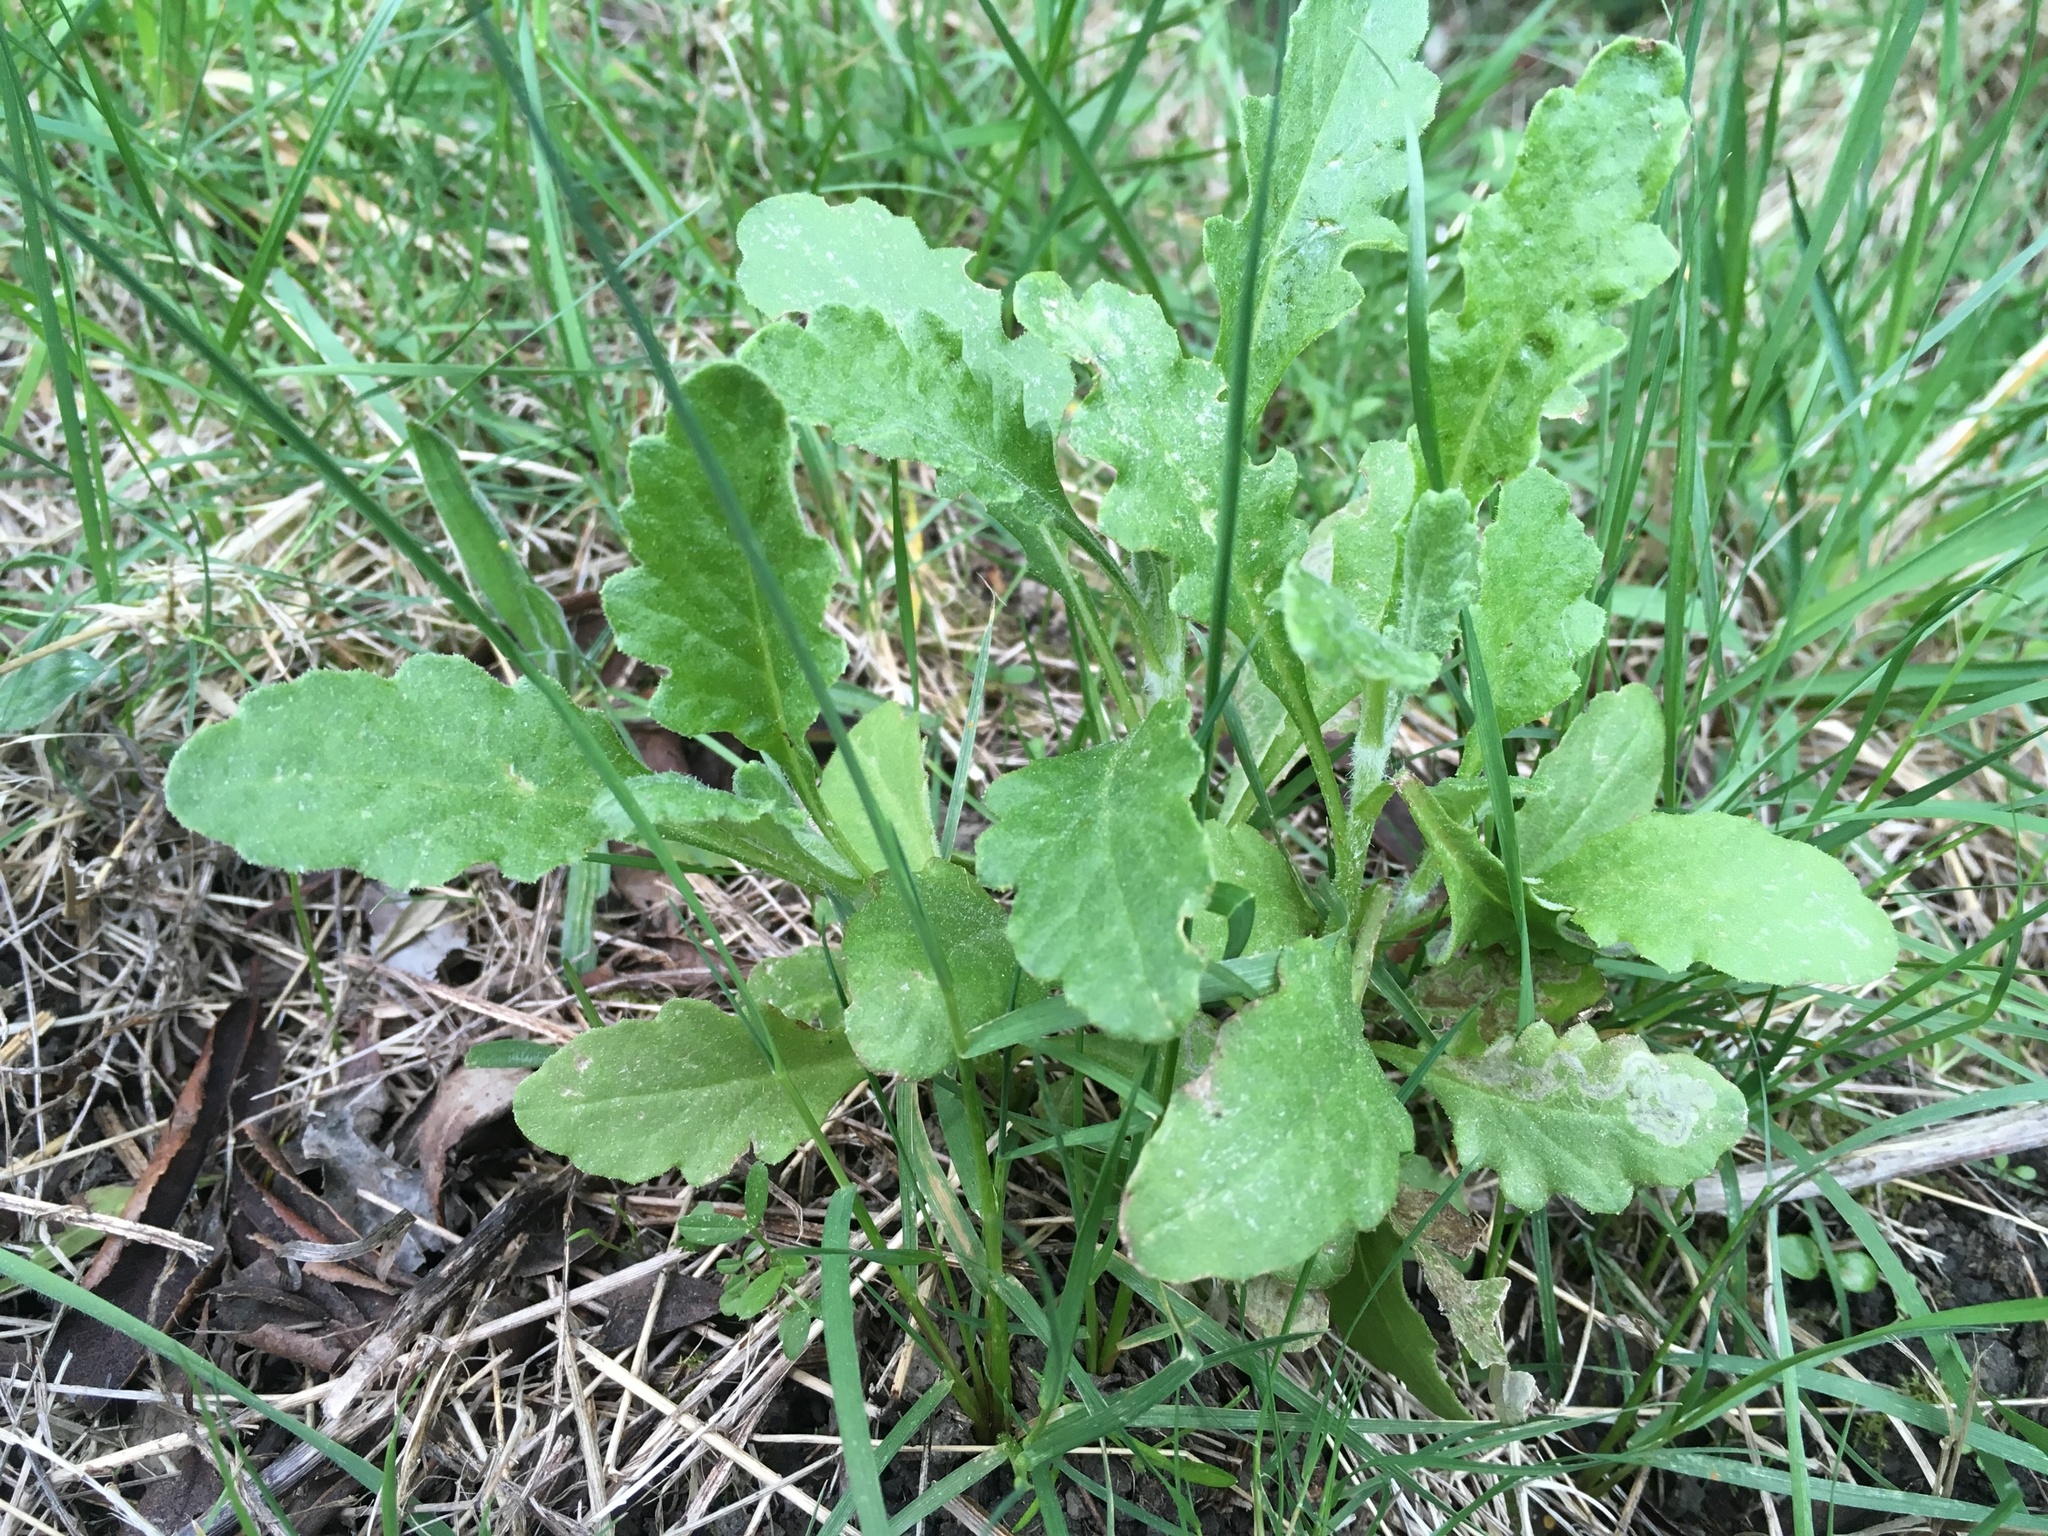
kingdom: Plantae
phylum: Tracheophyta
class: Magnoliopsida
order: Asterales
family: Asteraceae
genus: Senecio
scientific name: Senecio glomeratus
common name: Cutleaf burnweed
